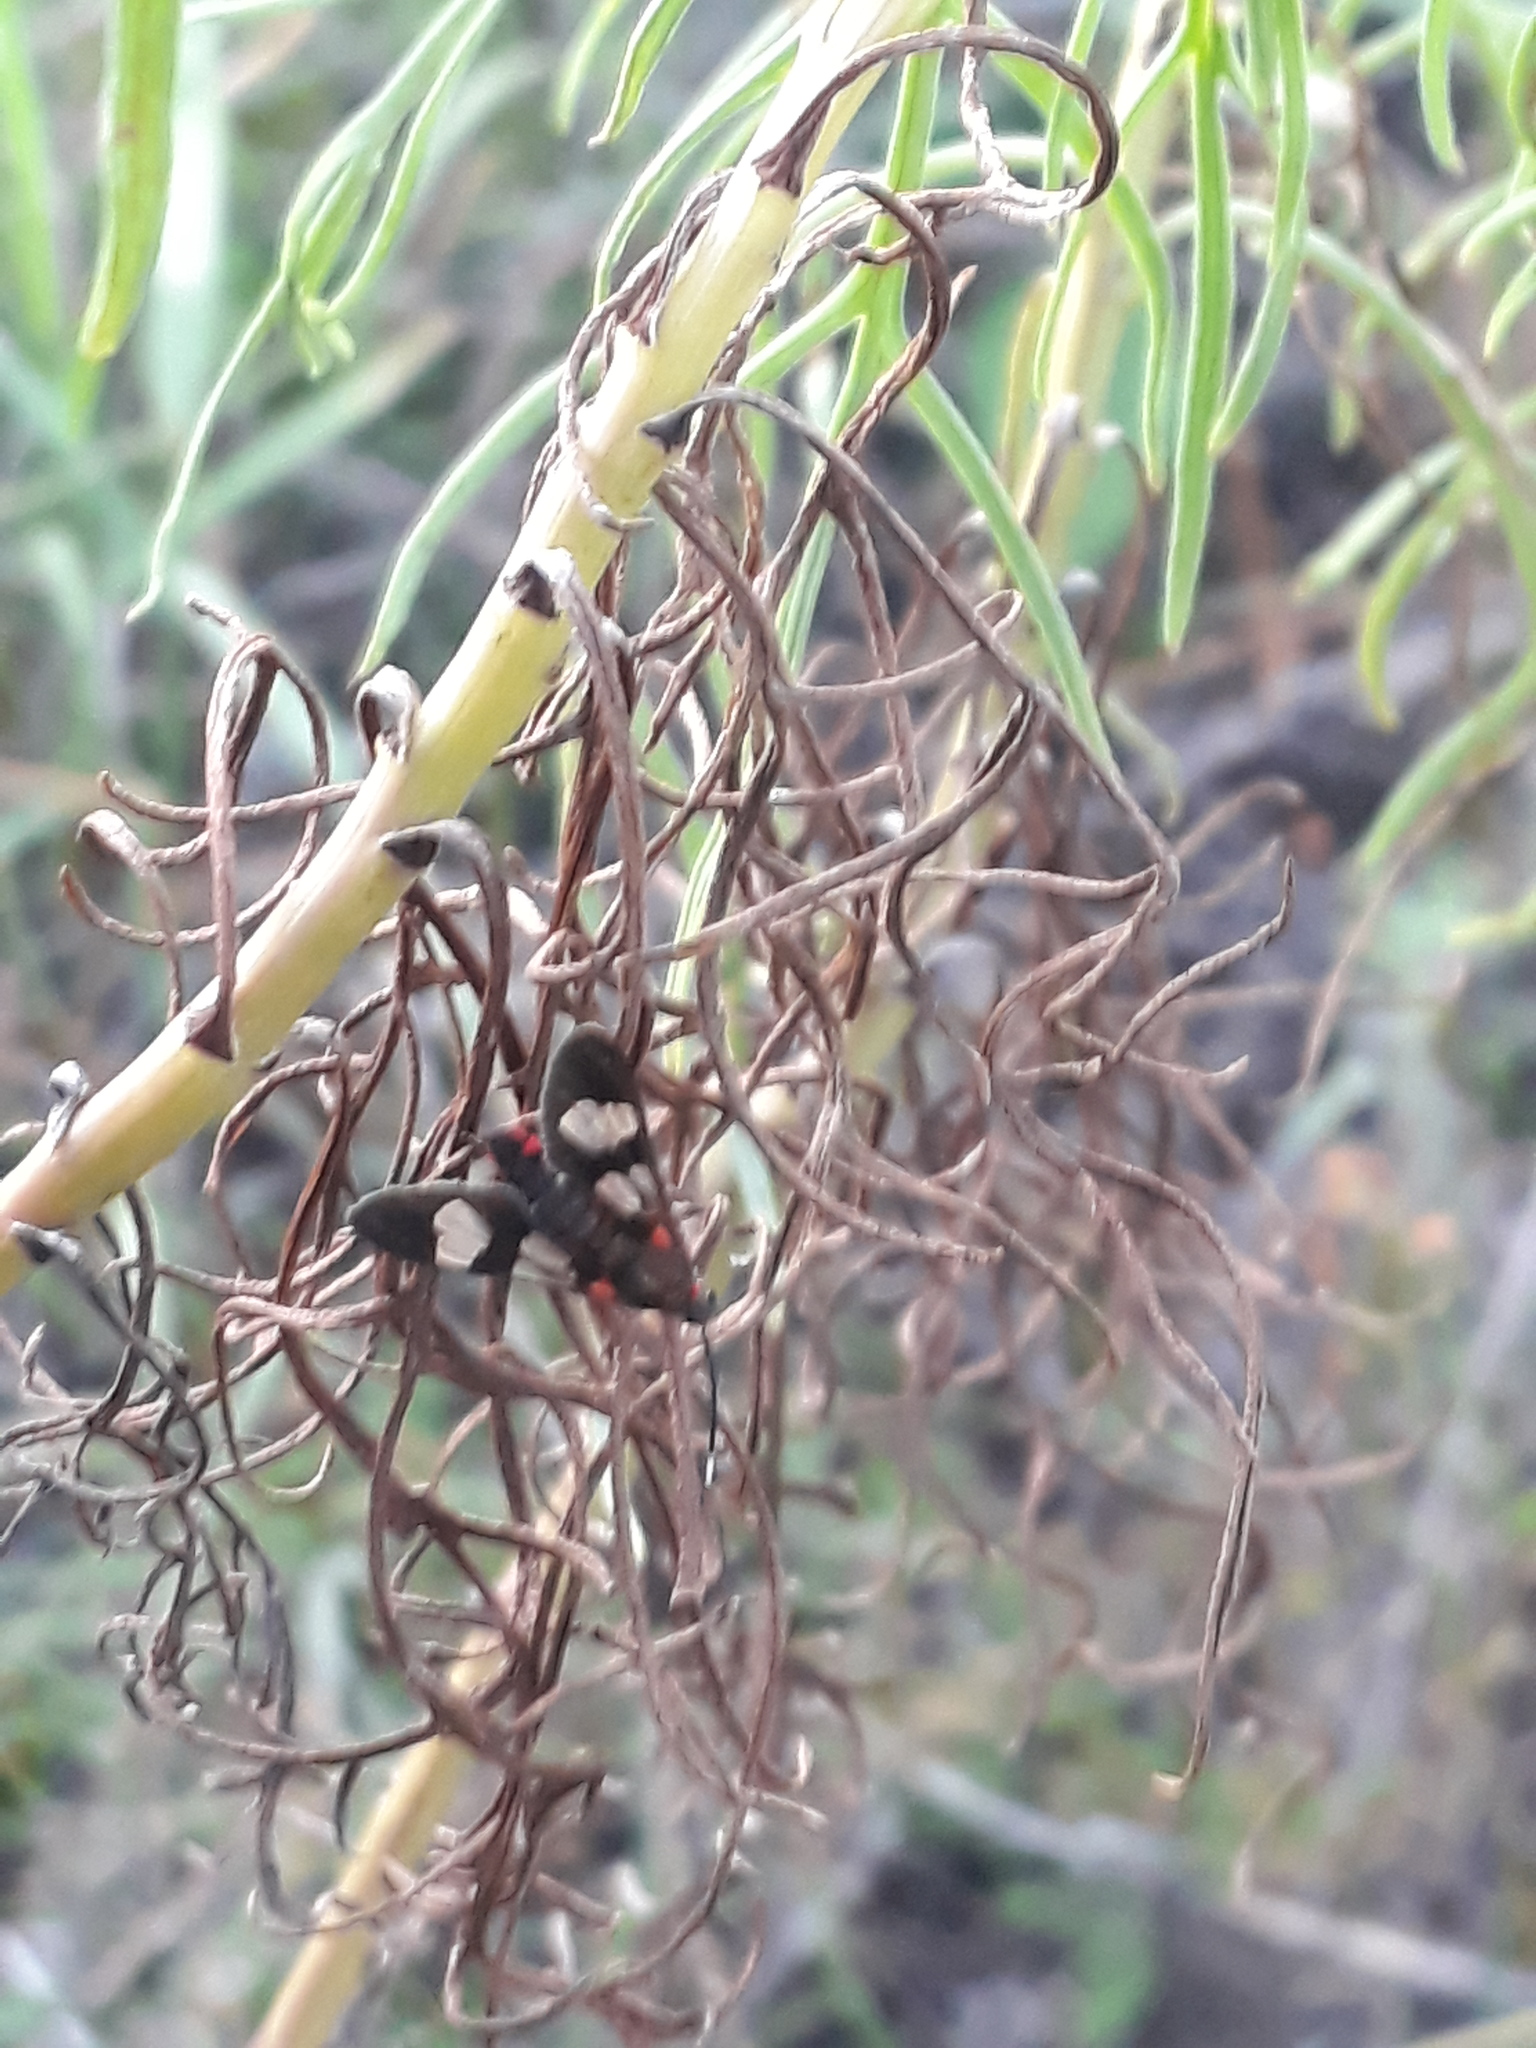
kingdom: Animalia
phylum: Arthropoda
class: Insecta
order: Lepidoptera
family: Erebidae
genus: Phoenicoprocta
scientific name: Phoenicoprocta teda
